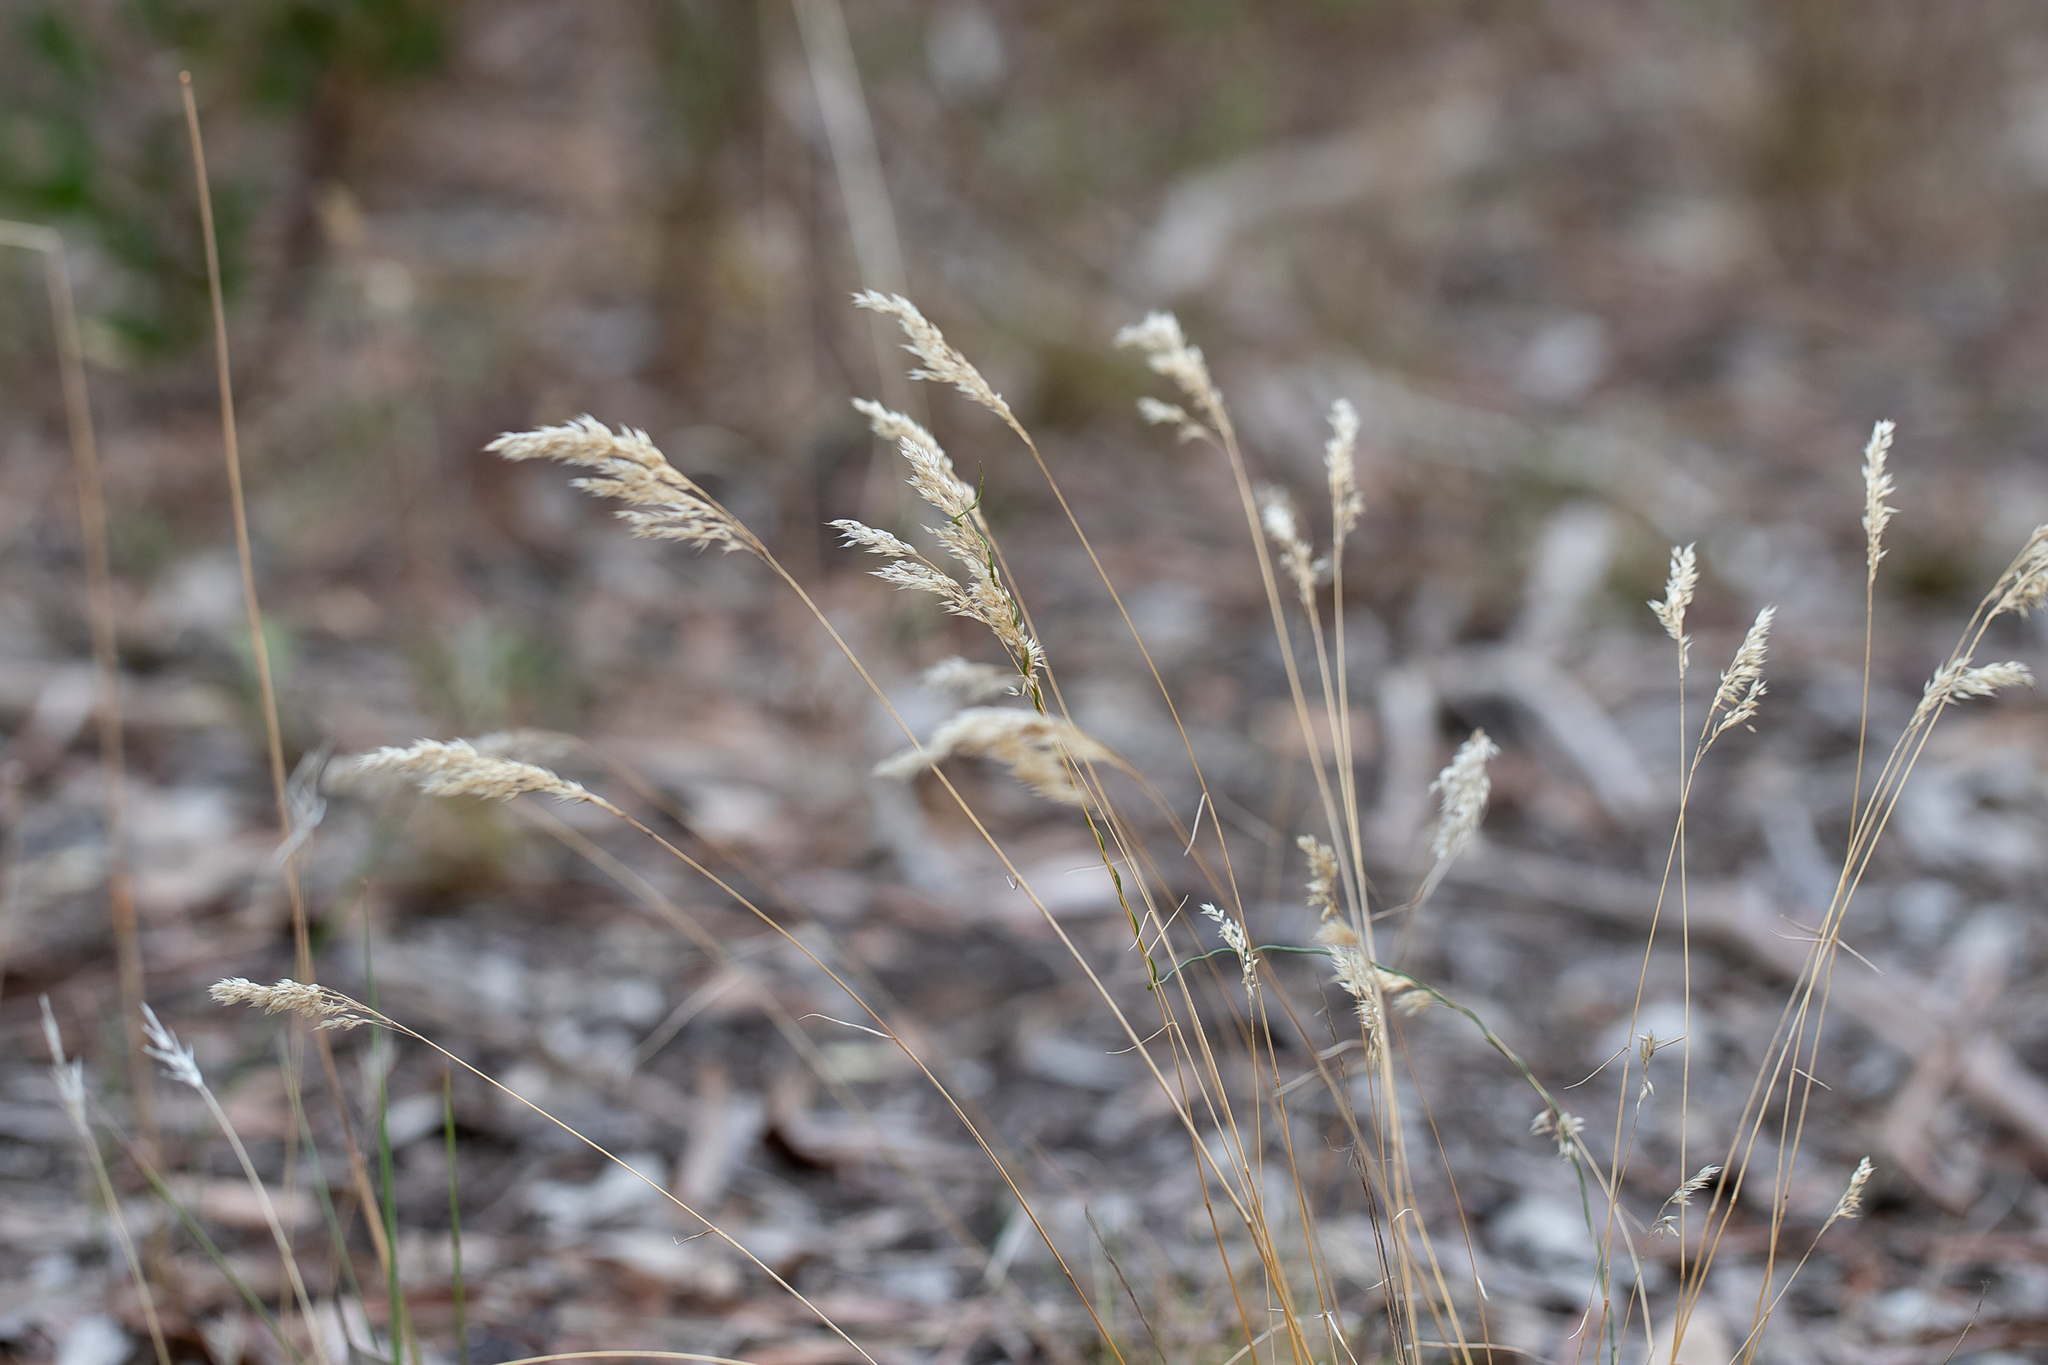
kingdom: Plantae
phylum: Tracheophyta
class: Liliopsida
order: Poales
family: Poaceae
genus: Pentameris
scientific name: Pentameris pallida
